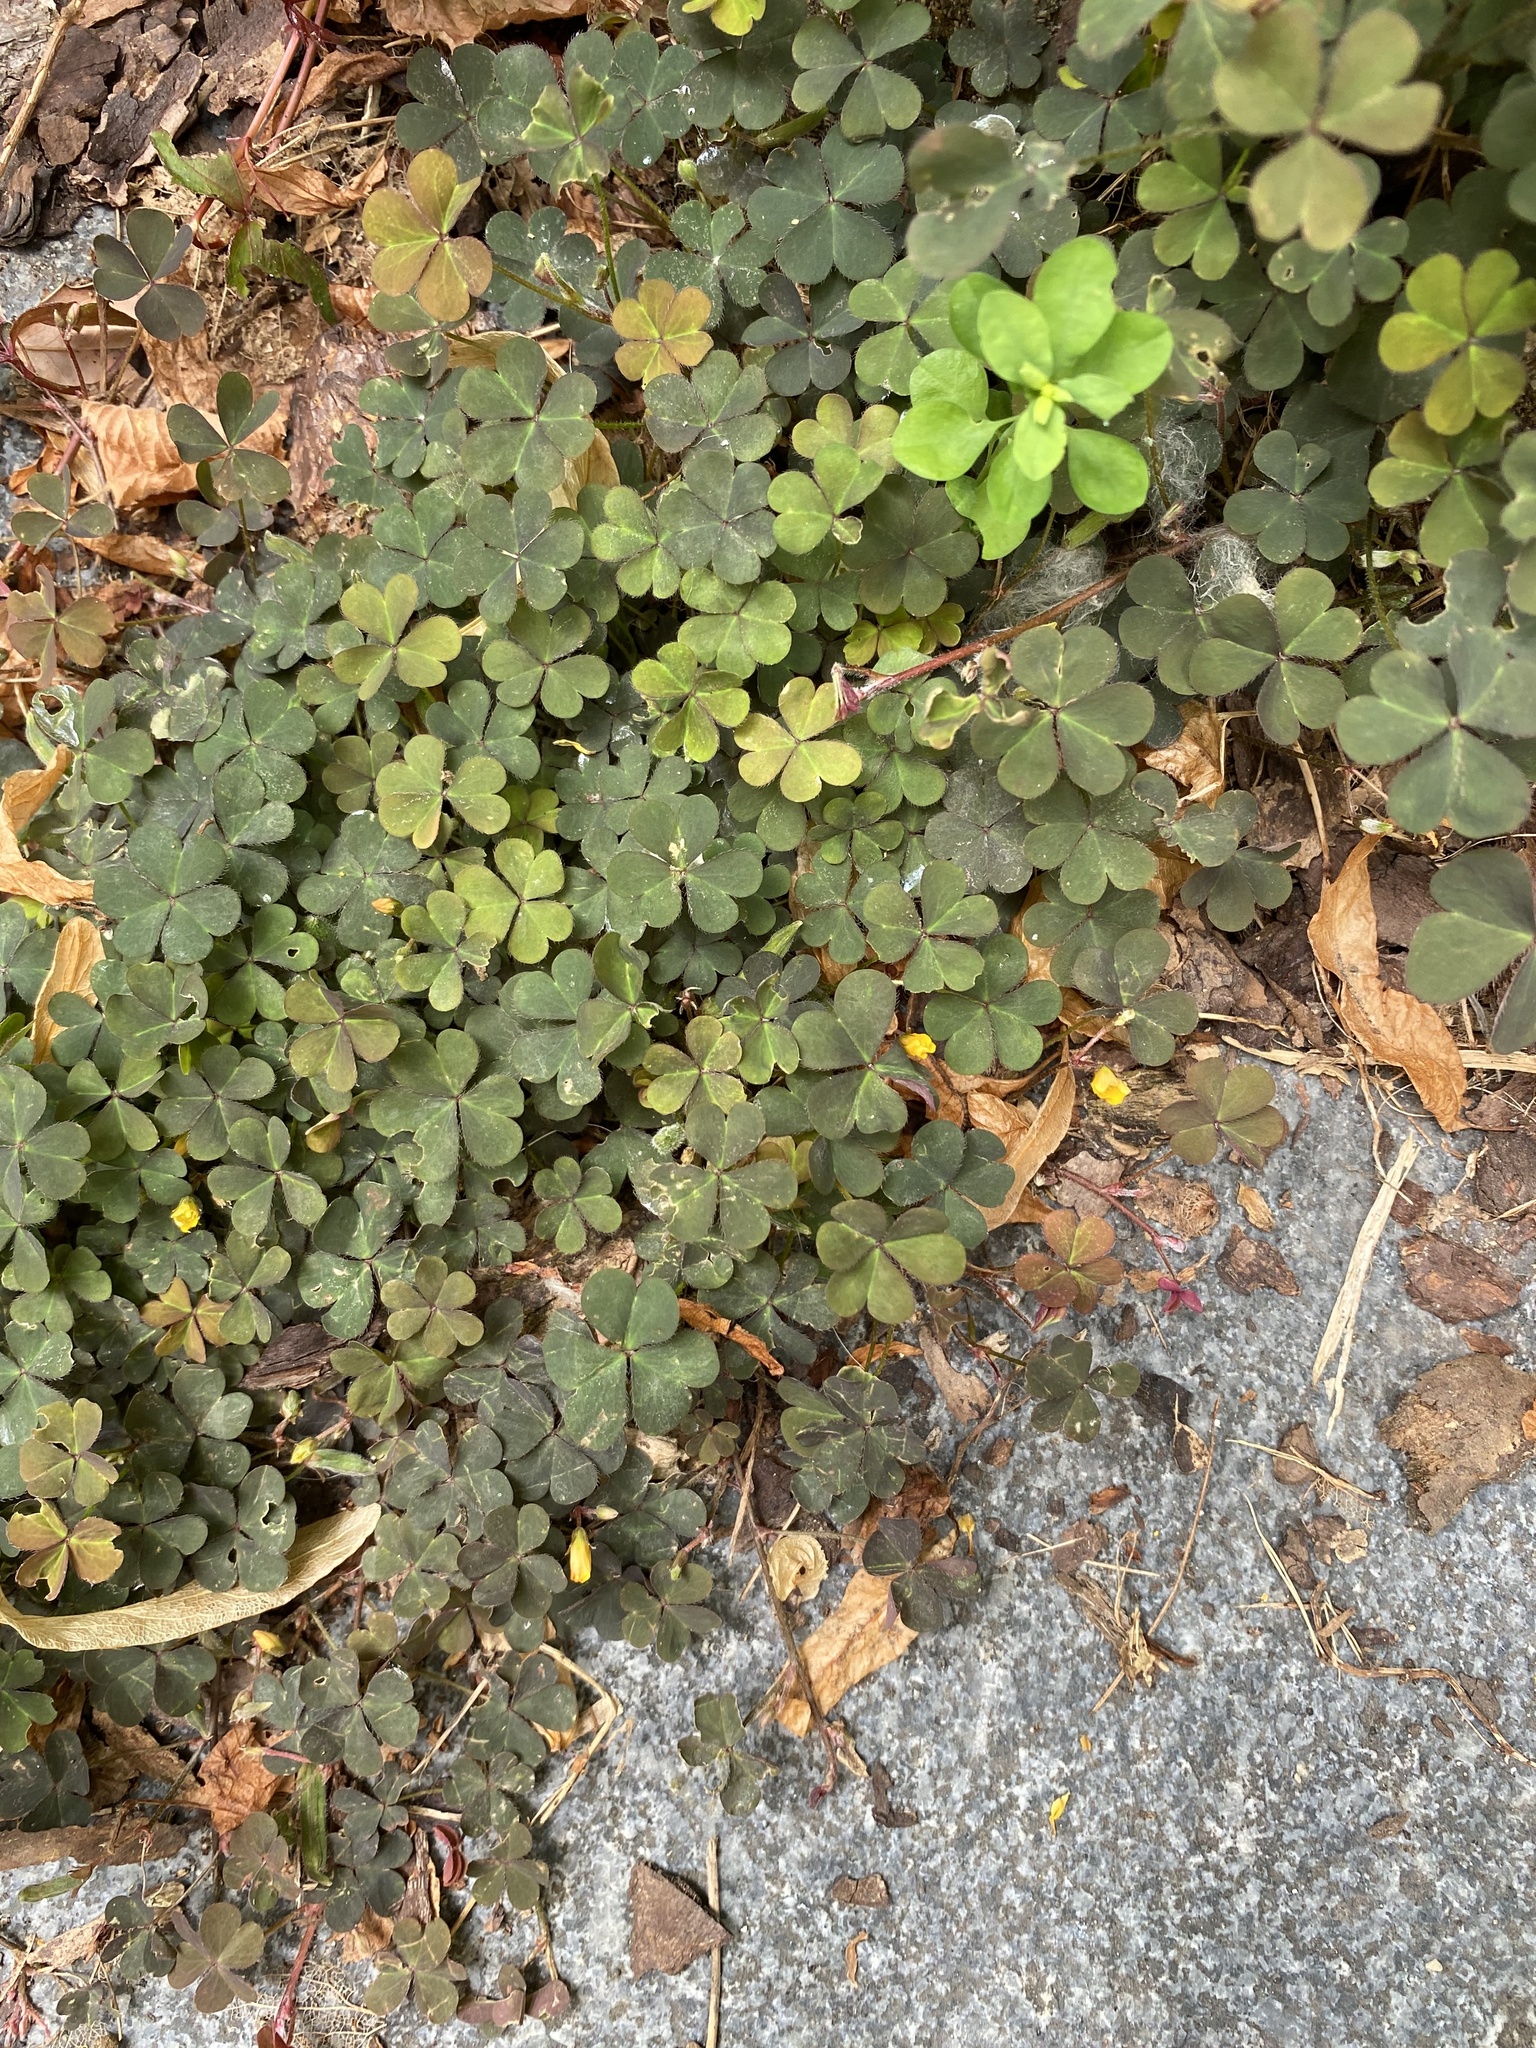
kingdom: Plantae
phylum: Tracheophyta
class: Magnoliopsida
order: Oxalidales
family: Oxalidaceae
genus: Oxalis
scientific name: Oxalis corniculata
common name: Procumbent yellow-sorrel
